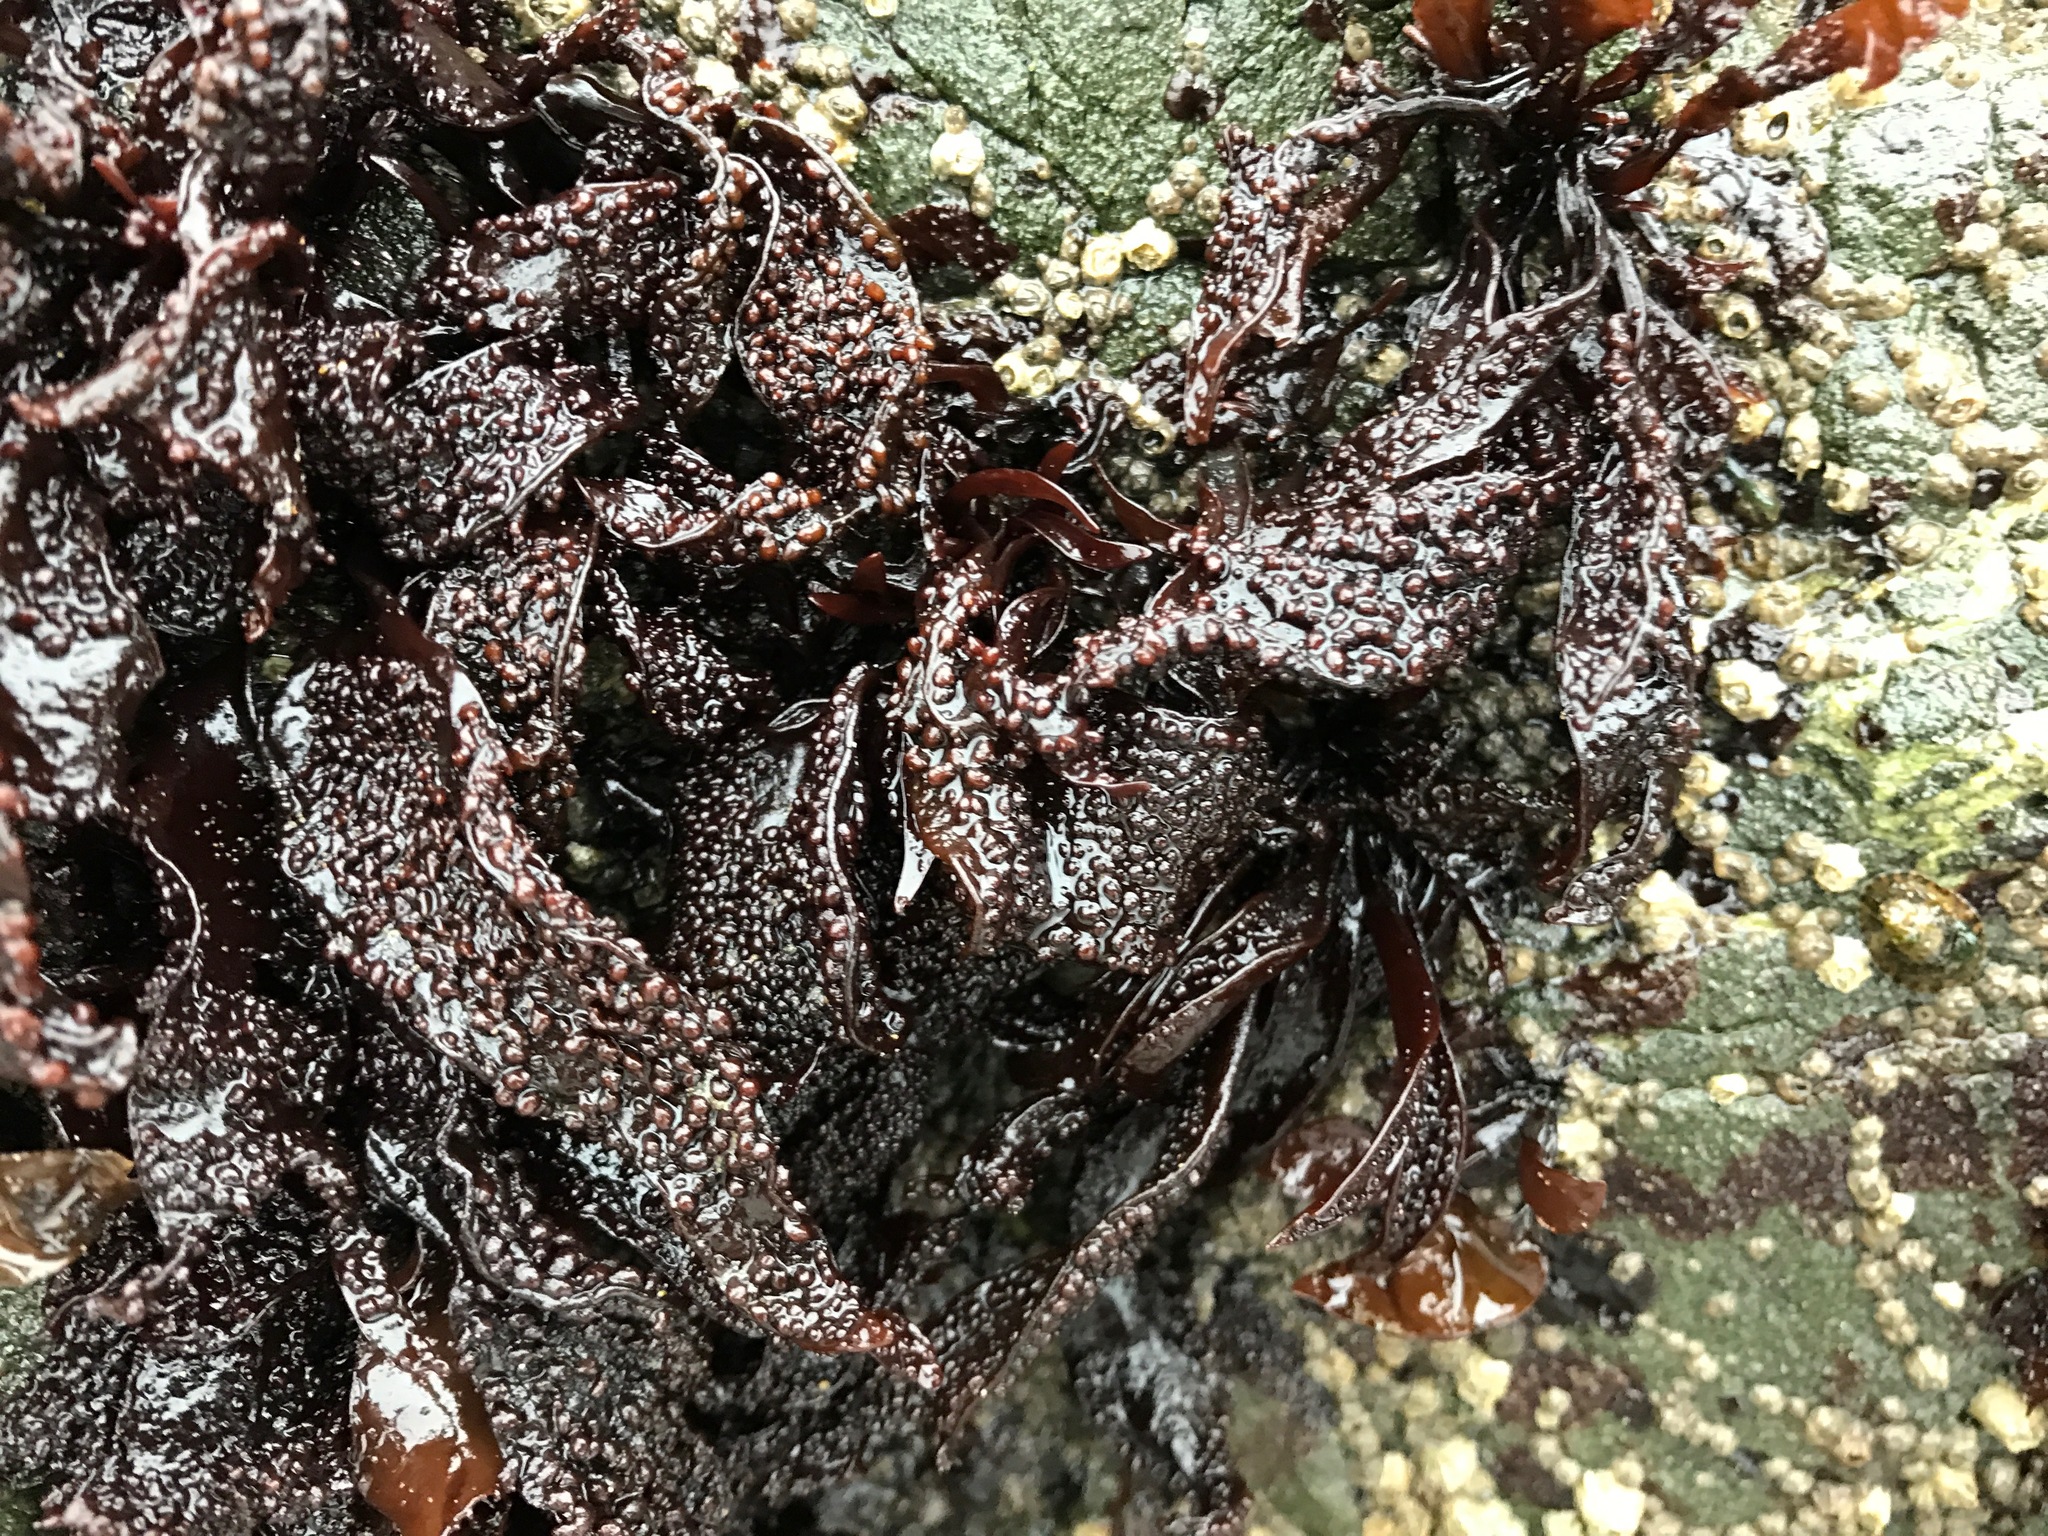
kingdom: Plantae
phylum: Rhodophyta
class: Florideophyceae
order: Gigartinales
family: Phyllophoraceae
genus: Mastocarpus
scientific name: Mastocarpus papillatus
